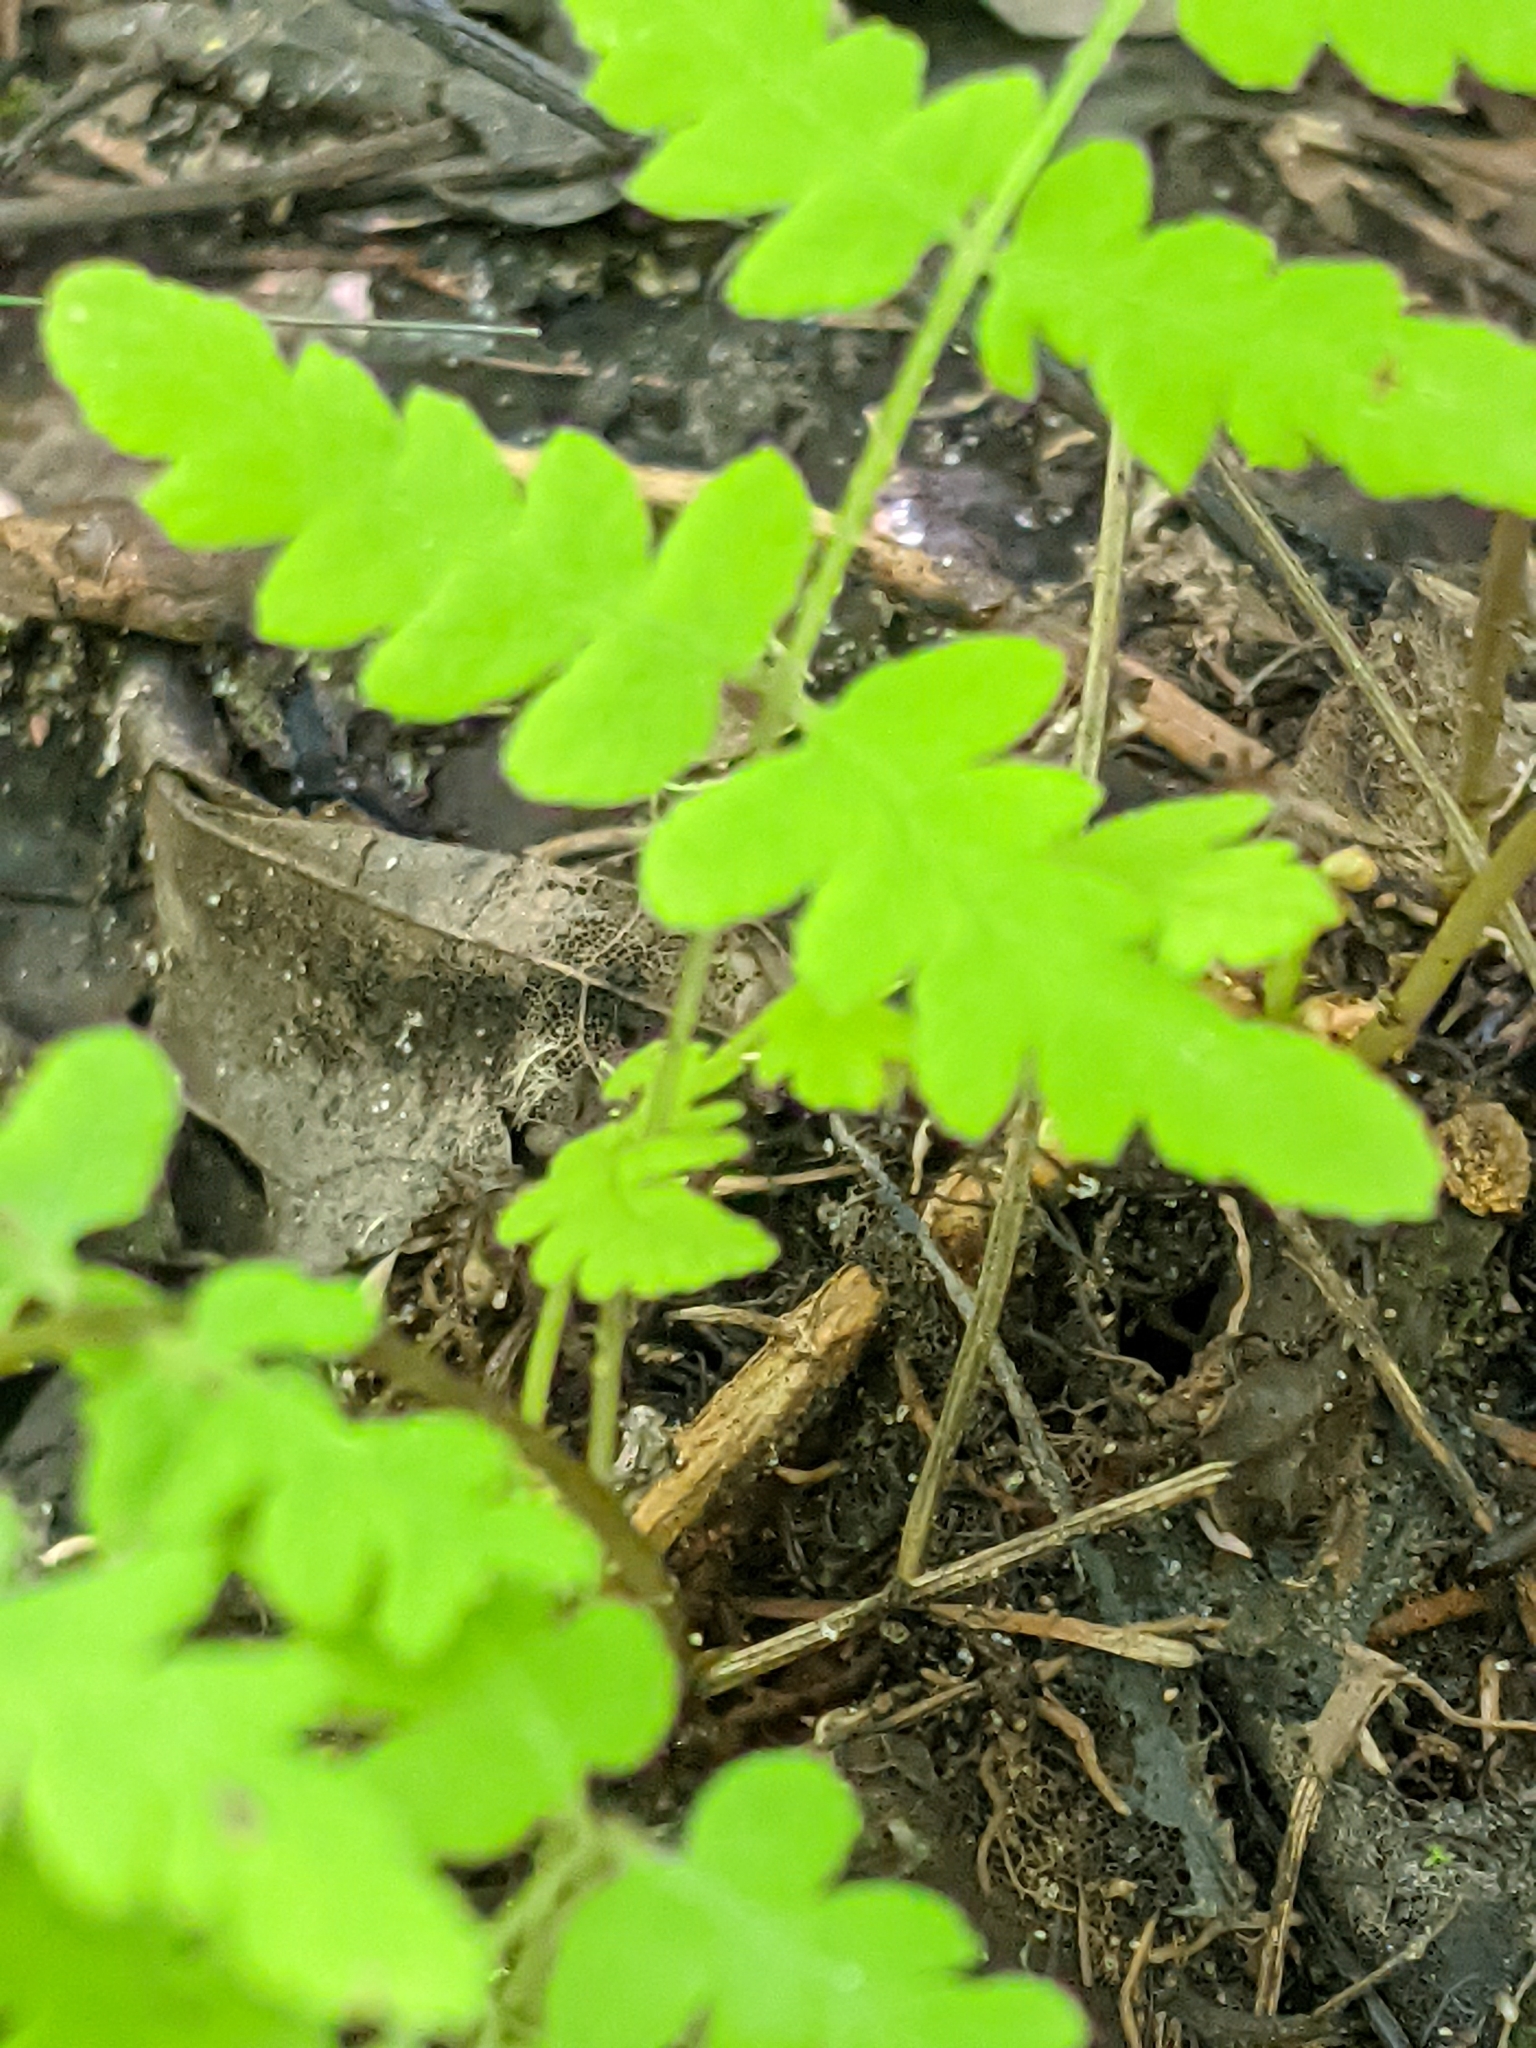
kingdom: Plantae
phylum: Tracheophyta
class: Polypodiopsida
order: Osmundales
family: Osmundaceae
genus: Claytosmunda
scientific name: Claytosmunda claytoniana
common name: Clayton's fern
